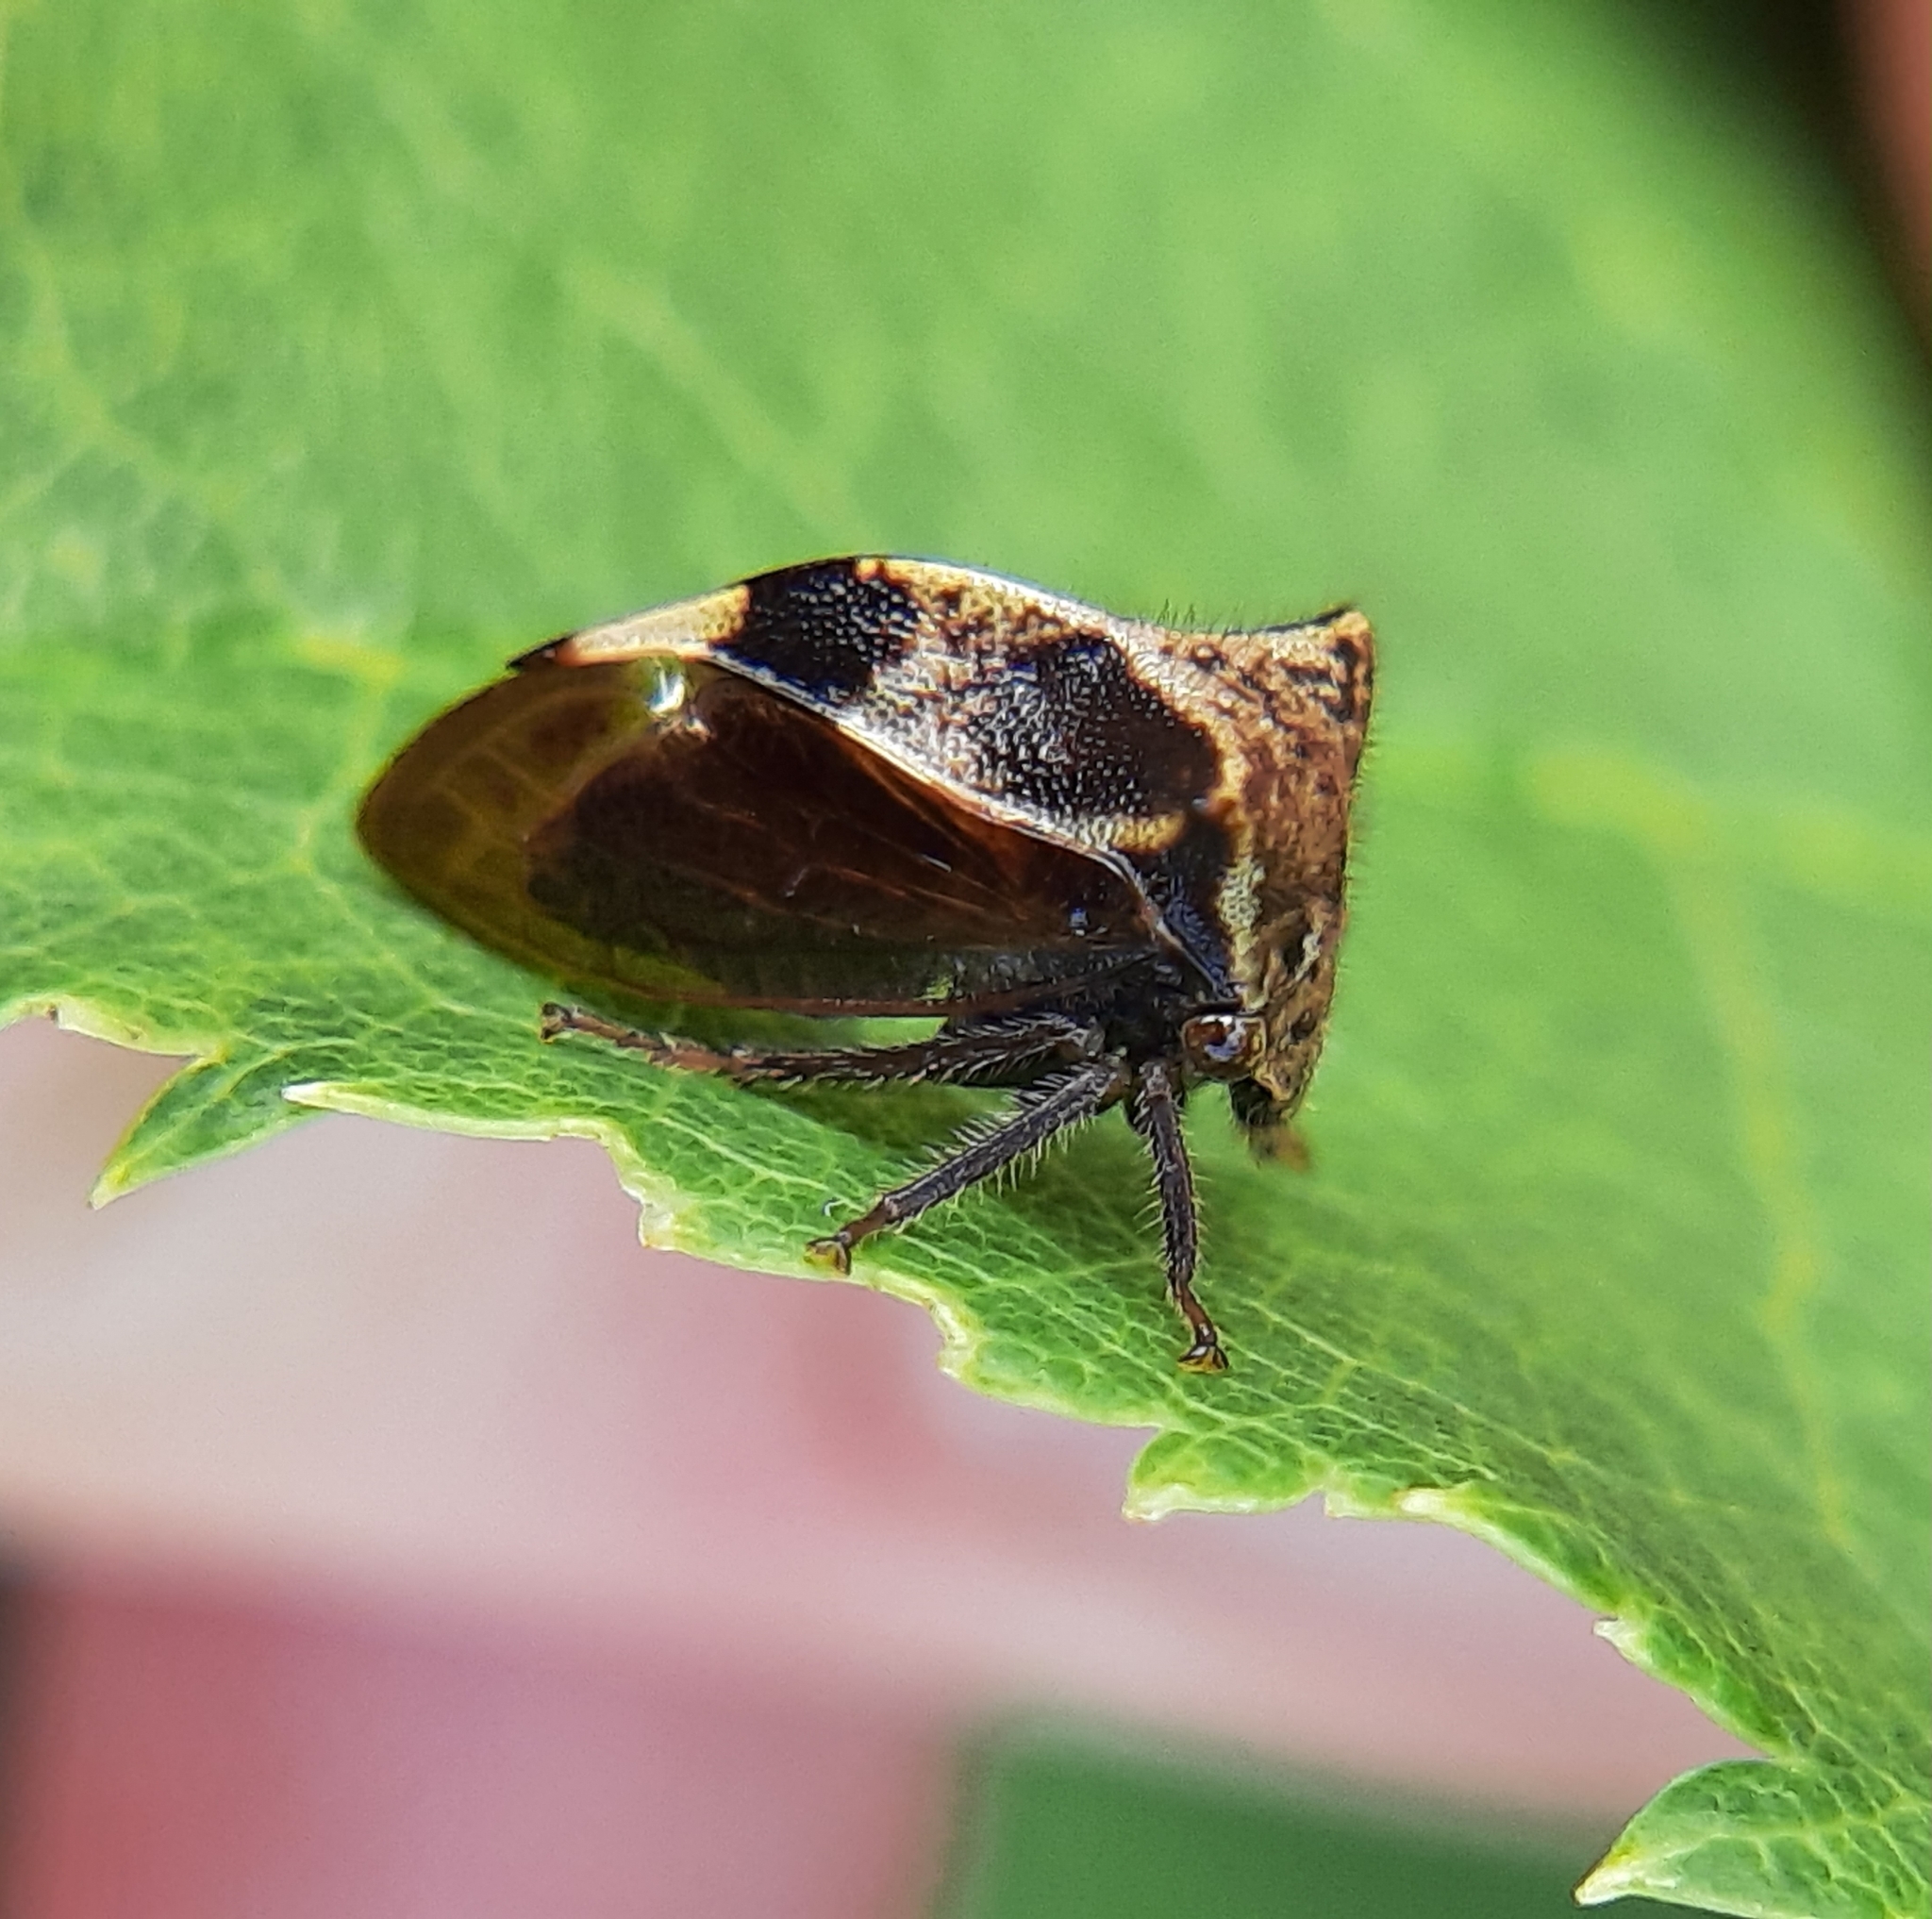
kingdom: Animalia
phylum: Arthropoda
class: Insecta
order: Hemiptera
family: Membracidae
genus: Stictocephala
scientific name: Stictocephala diceros
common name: Two-horned treehopper
